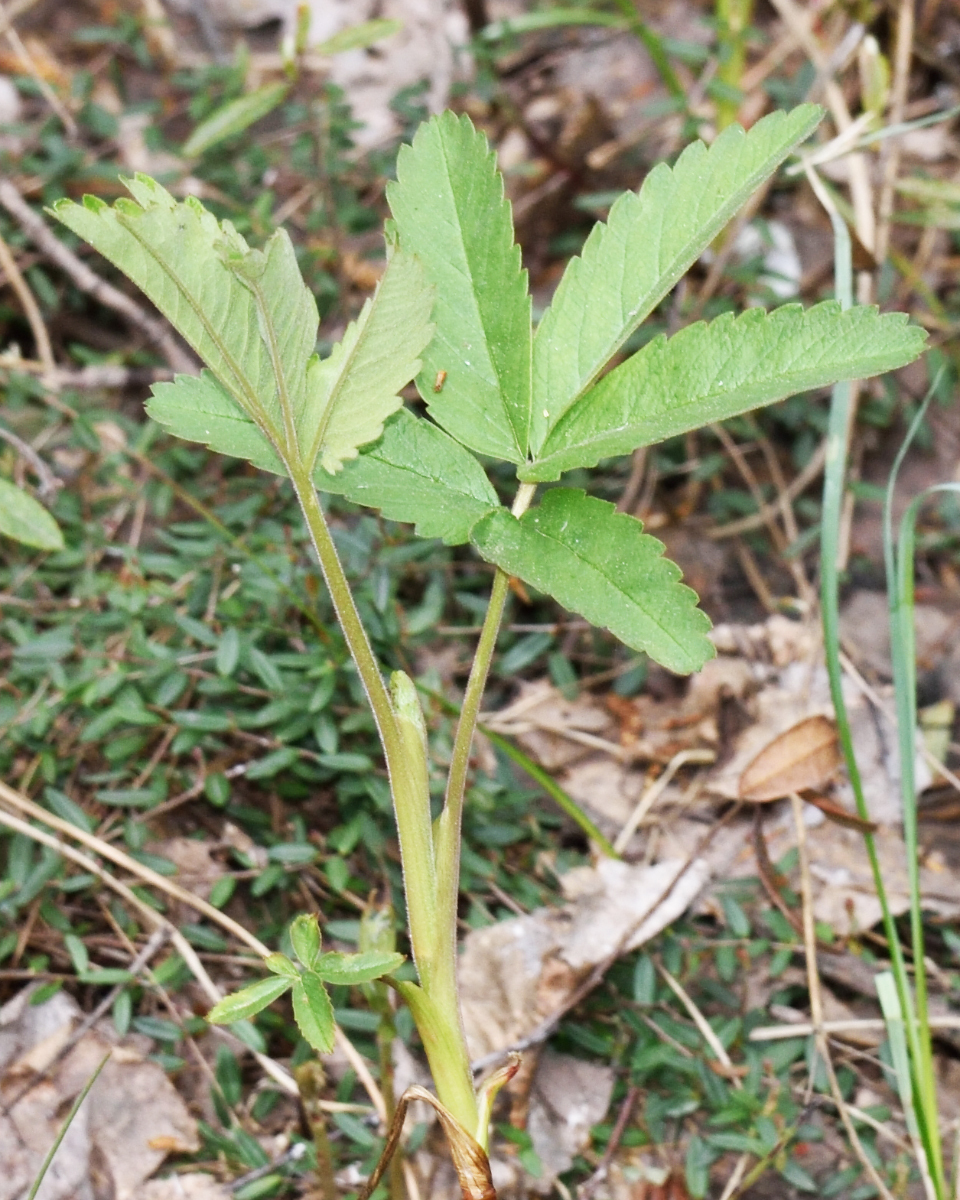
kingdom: Plantae
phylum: Tracheophyta
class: Magnoliopsida
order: Rosales
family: Rosaceae
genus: Comarum
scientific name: Comarum palustre
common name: Marsh cinquefoil
